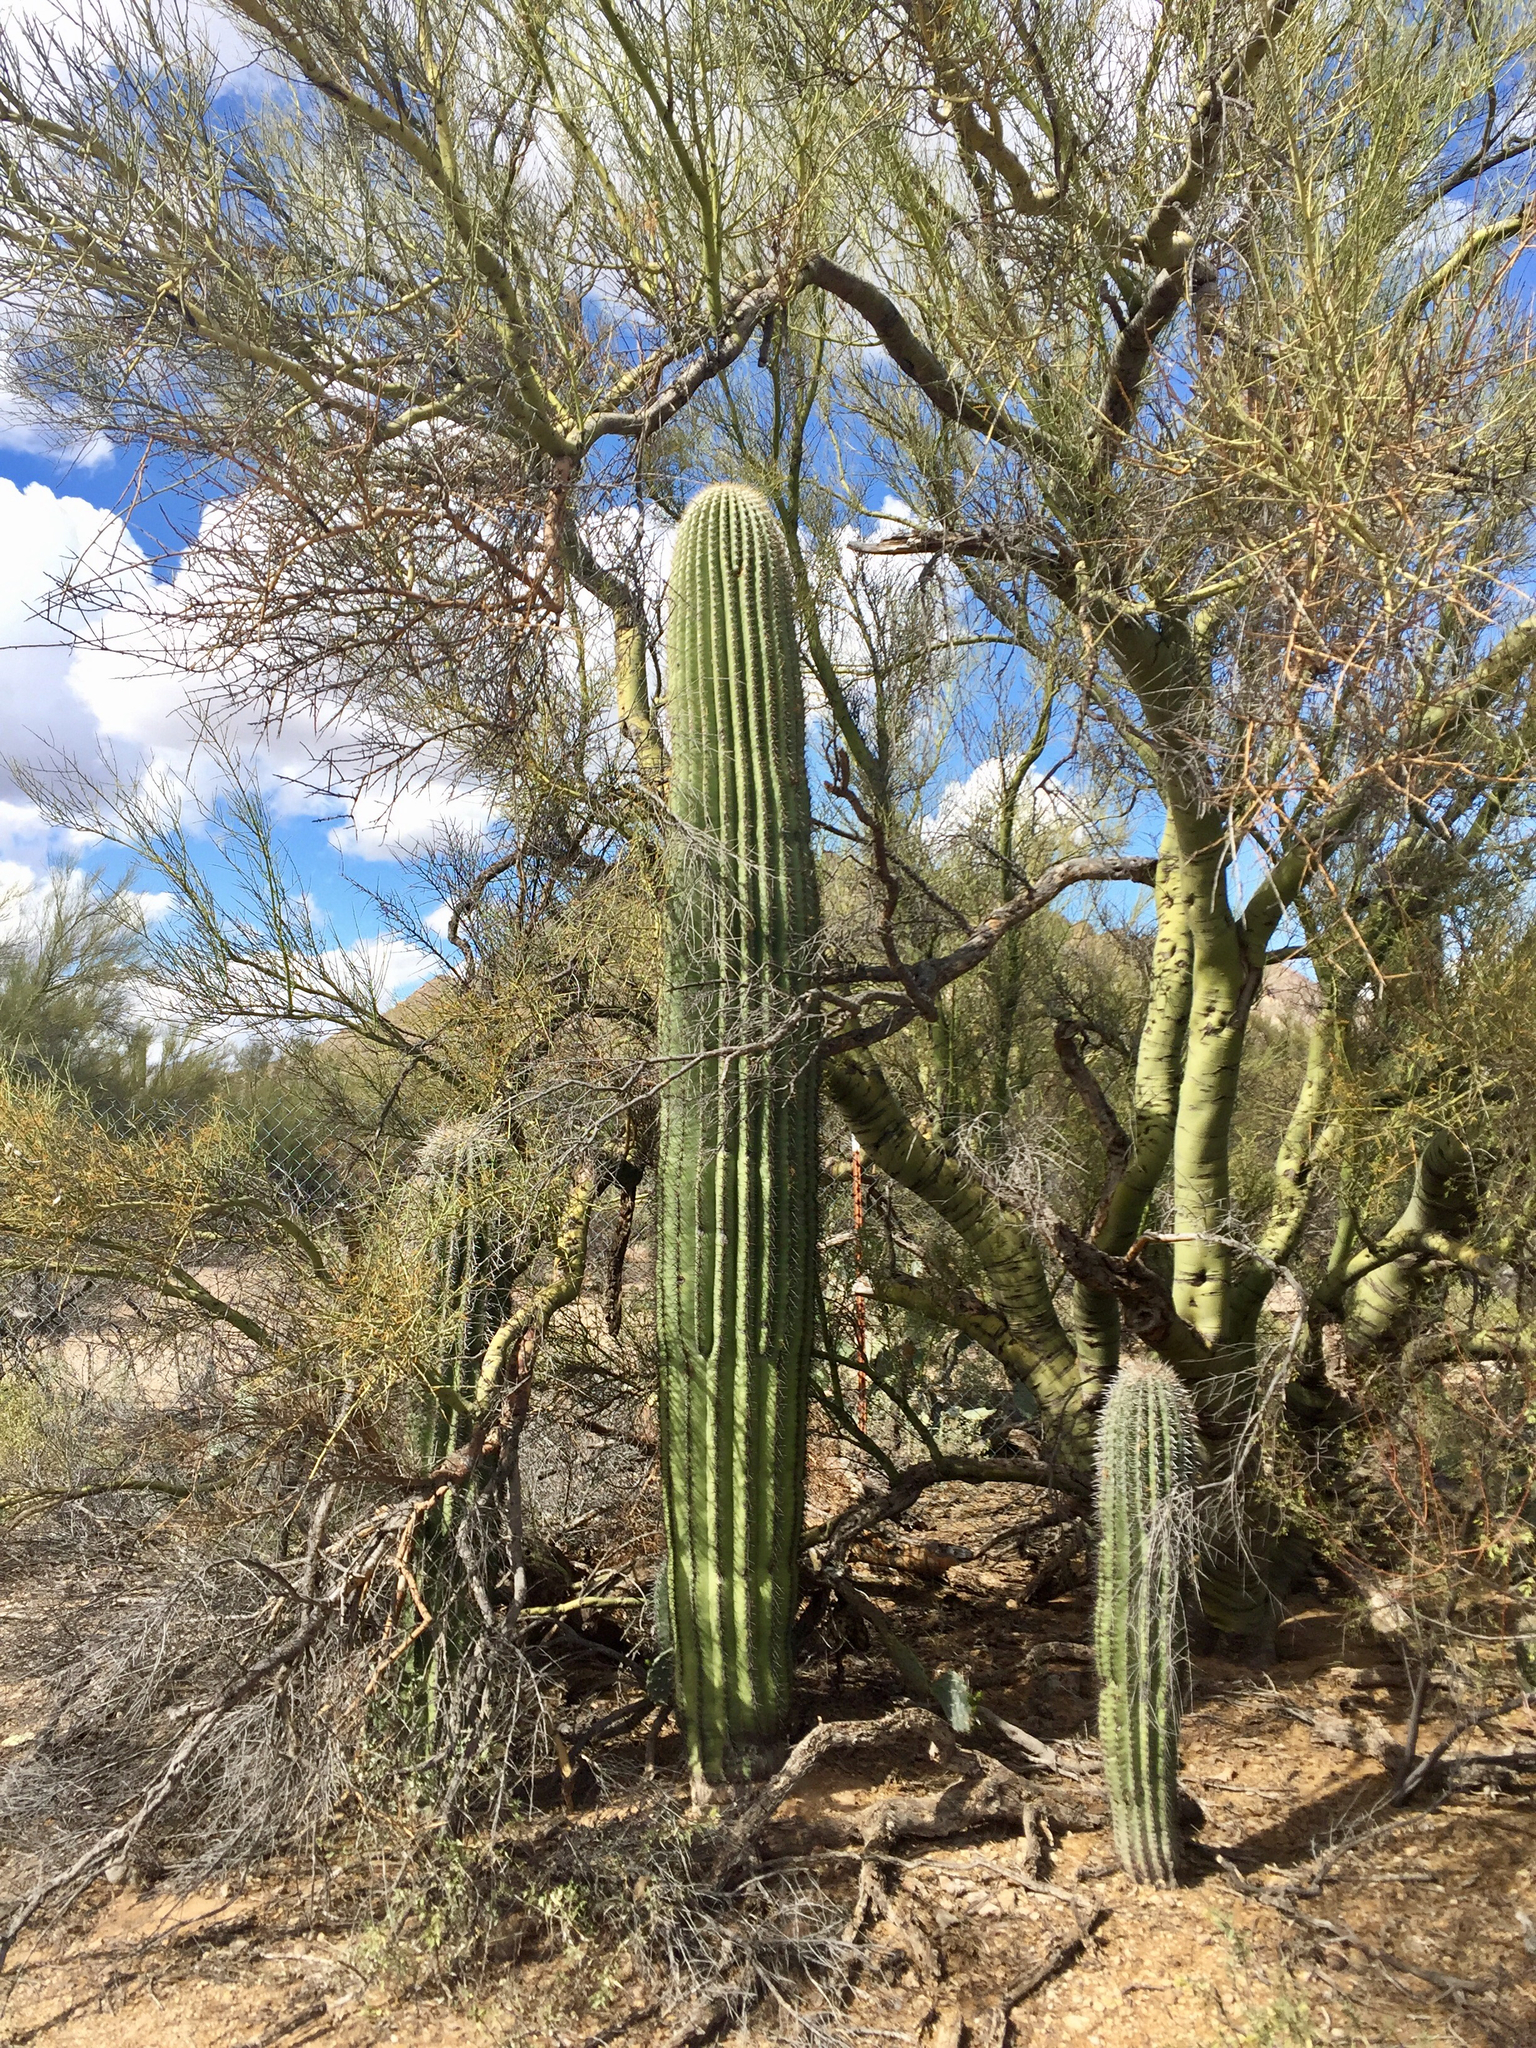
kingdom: Plantae
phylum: Tracheophyta
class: Magnoliopsida
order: Caryophyllales
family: Cactaceae
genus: Carnegiea
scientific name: Carnegiea gigantea
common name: Saguaro
